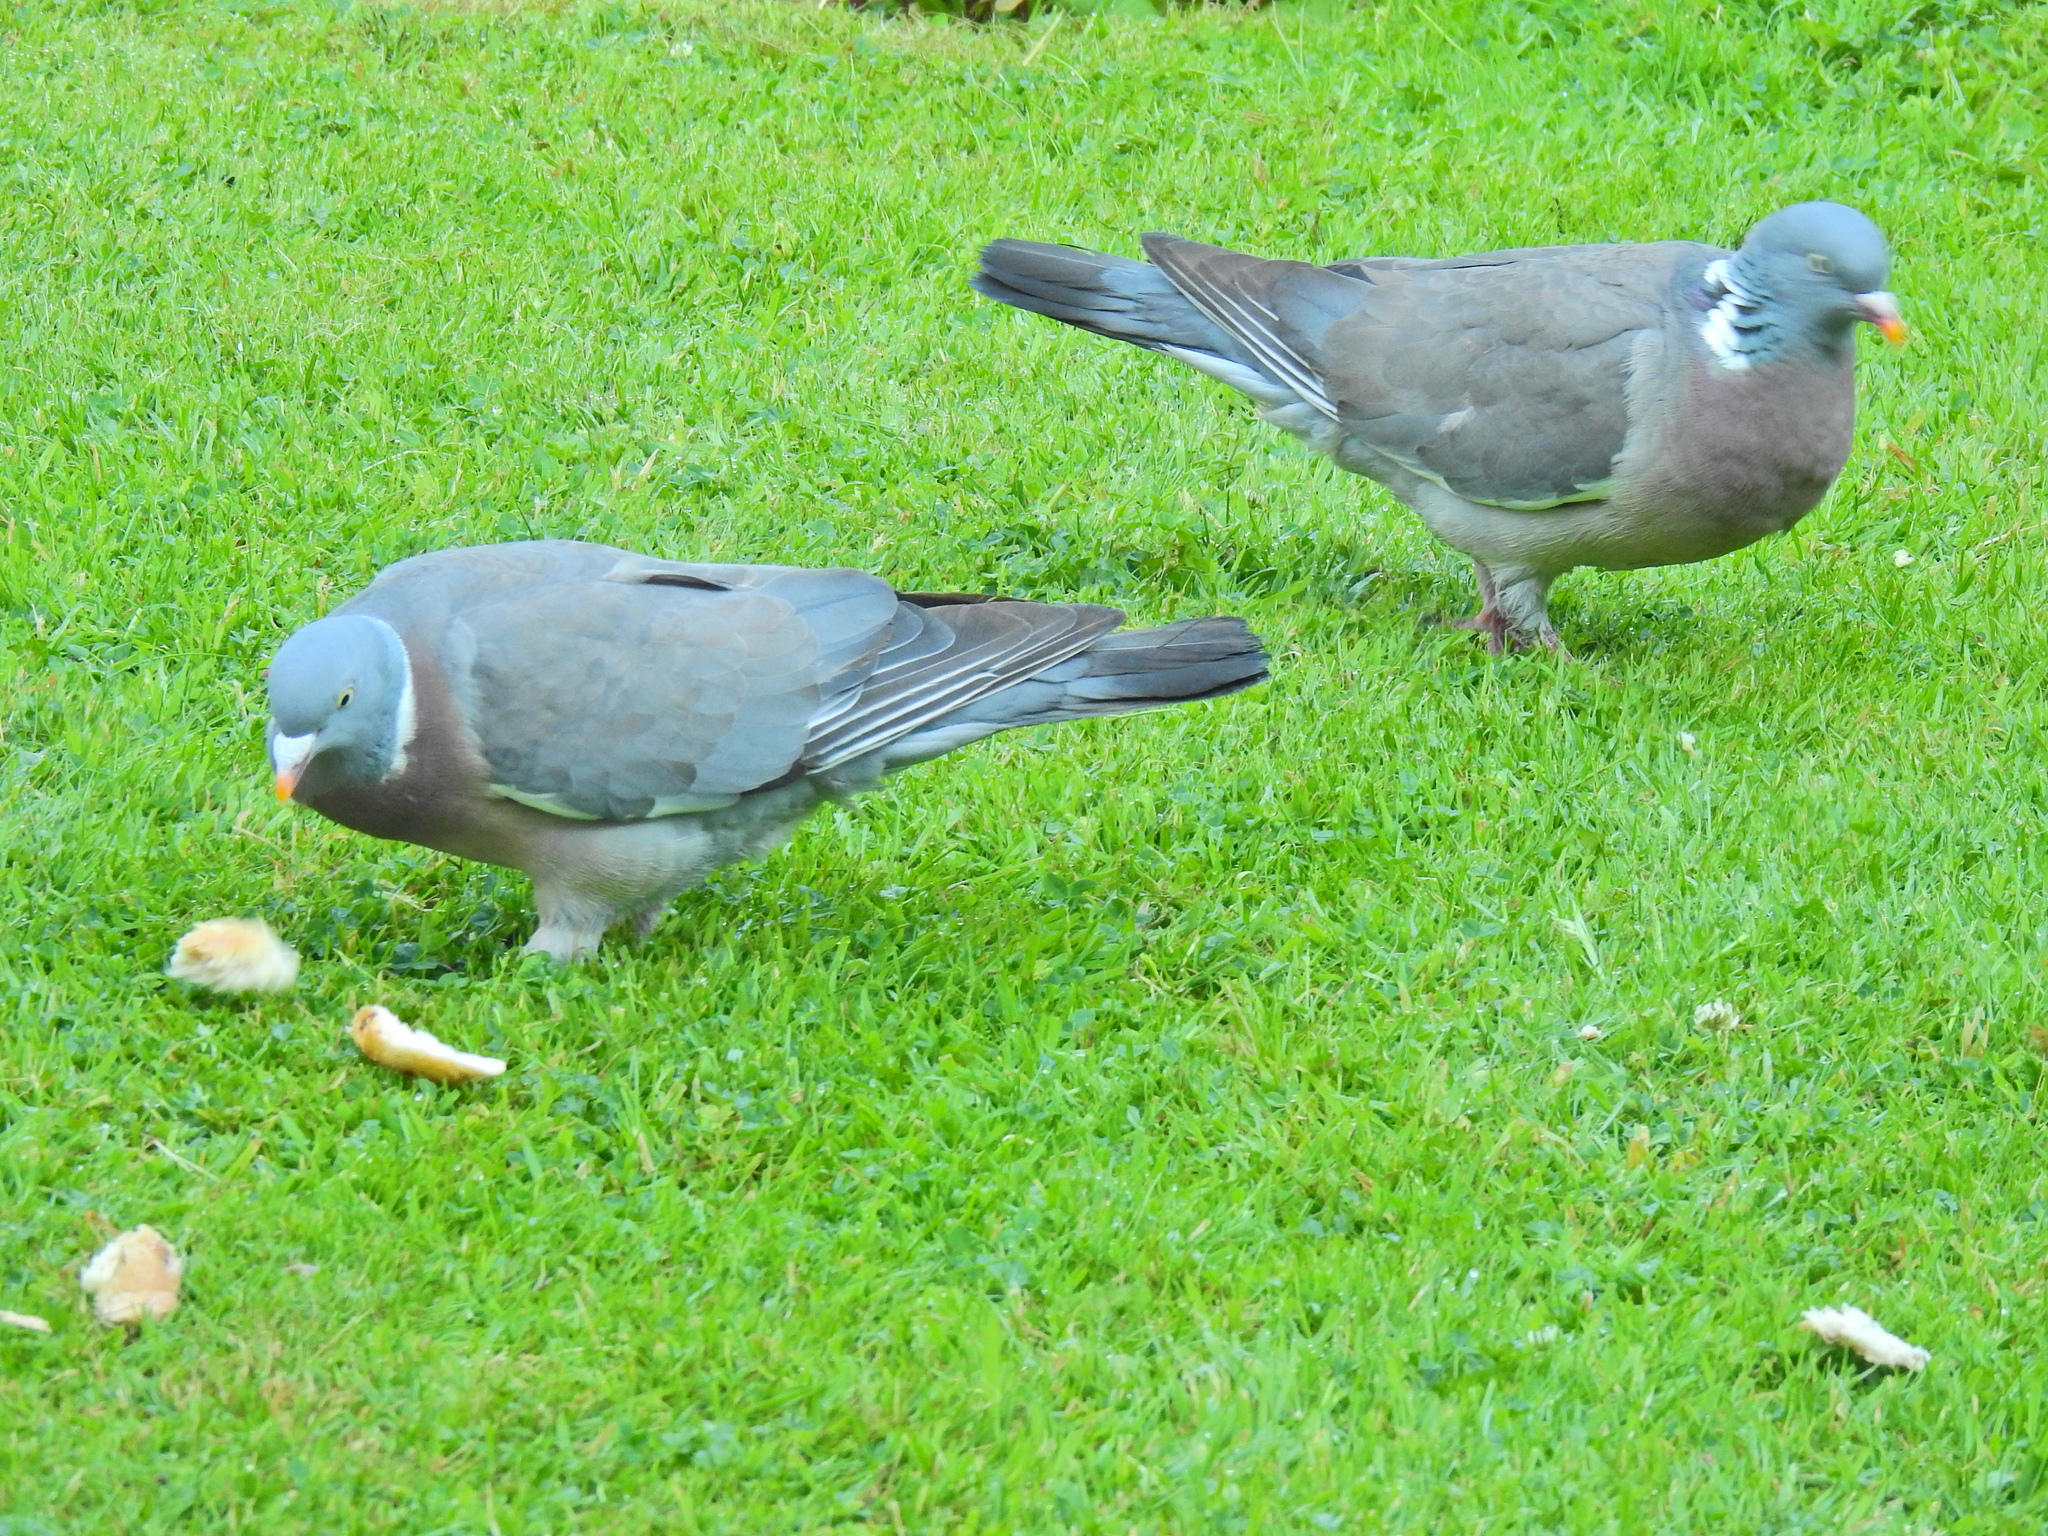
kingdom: Animalia
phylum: Chordata
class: Aves
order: Columbiformes
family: Columbidae
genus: Columba
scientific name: Columba palumbus
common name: Common wood pigeon
